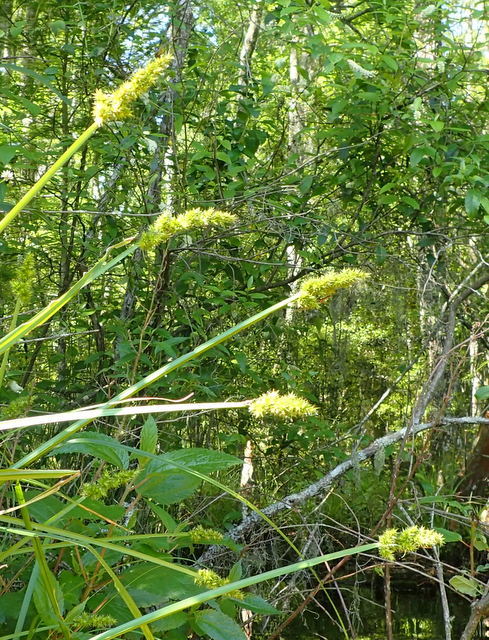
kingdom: Plantae
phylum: Tracheophyta
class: Liliopsida
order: Poales
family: Cyperaceae
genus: Carex
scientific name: Carex stipata
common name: Awl-fruited sedge
